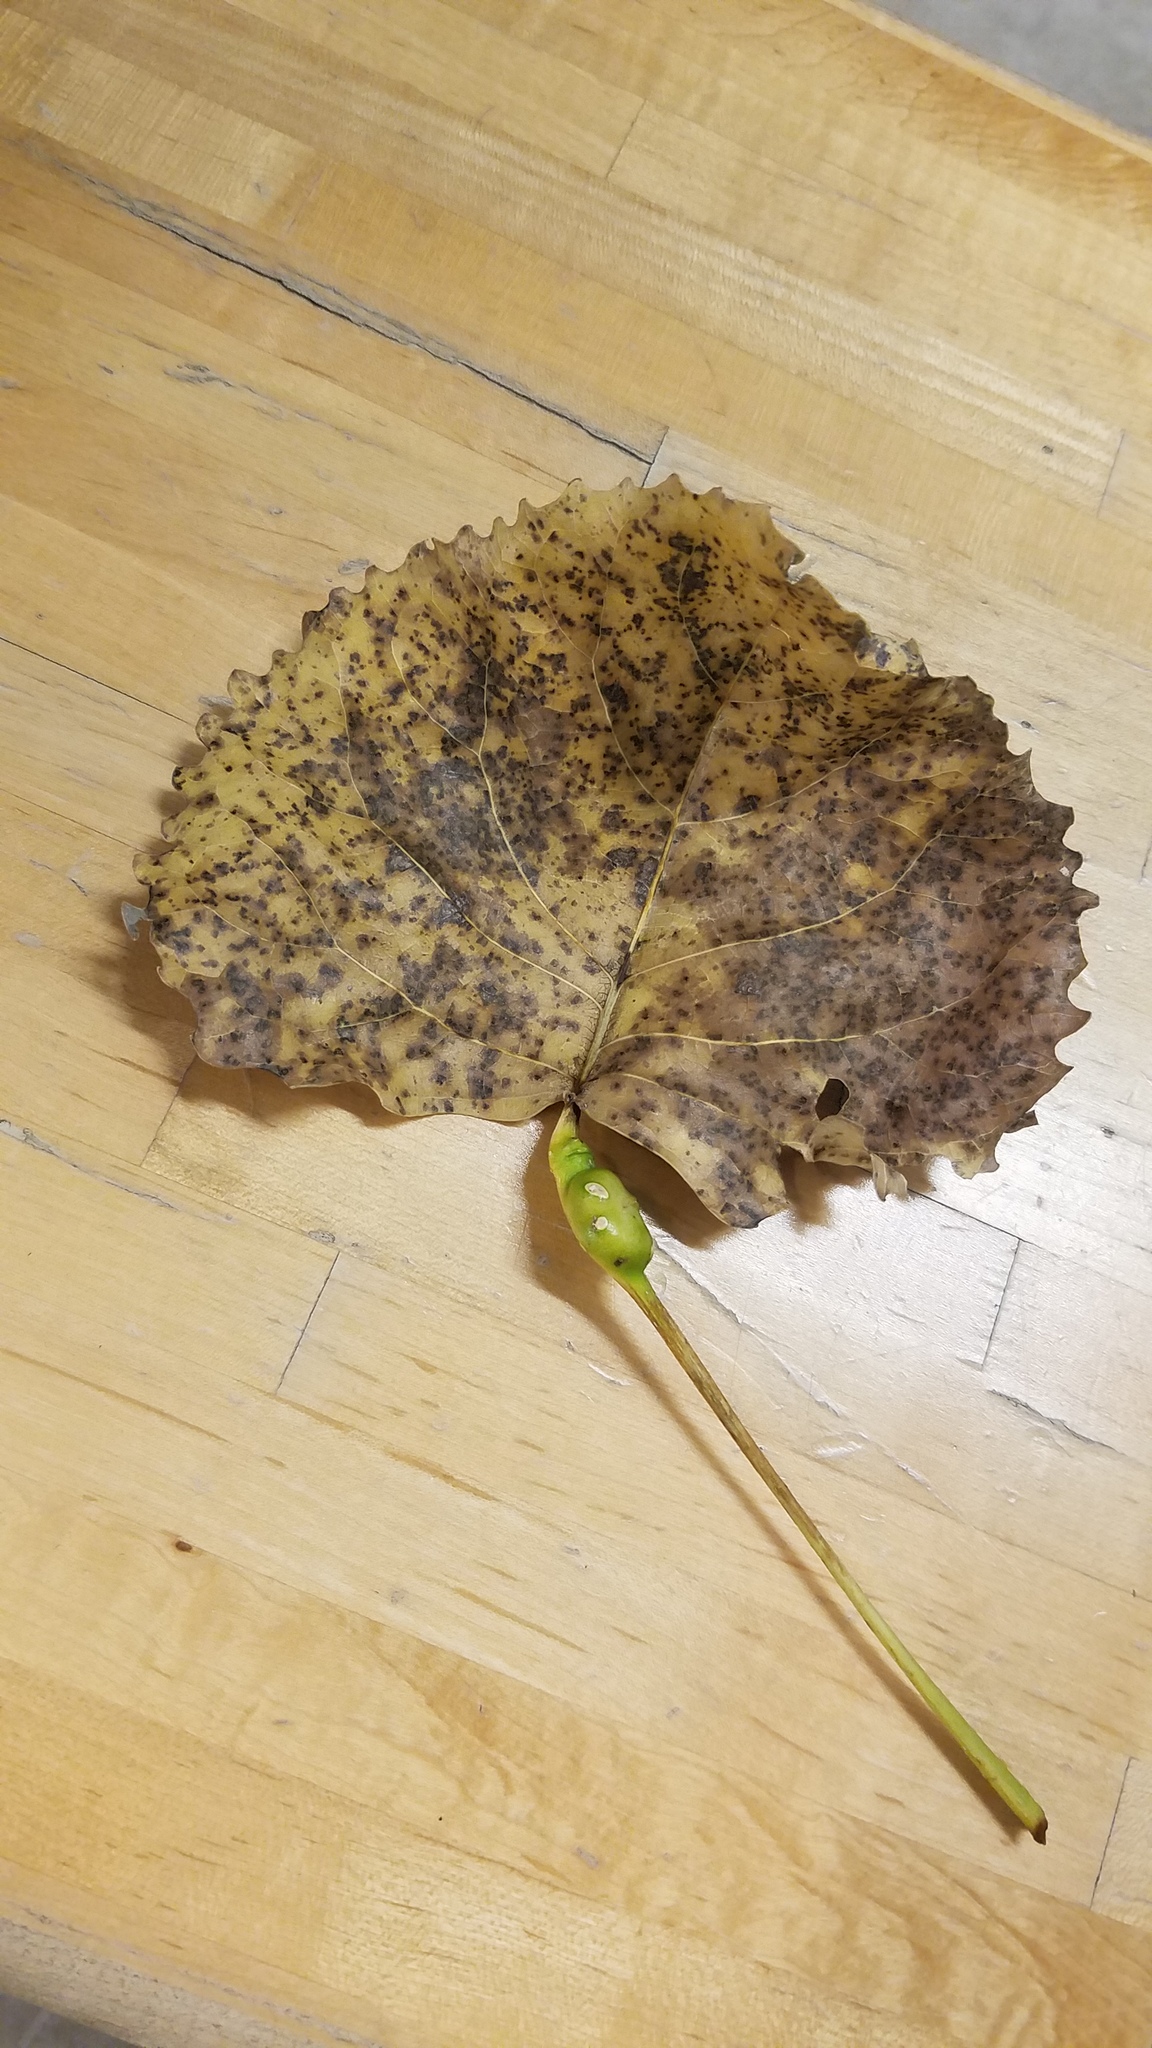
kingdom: Animalia
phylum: Arthropoda
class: Insecta
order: Hemiptera
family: Aphididae
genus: Pemphigus
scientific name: Pemphigus populitransversus
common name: Poplar petiolegall aphid
